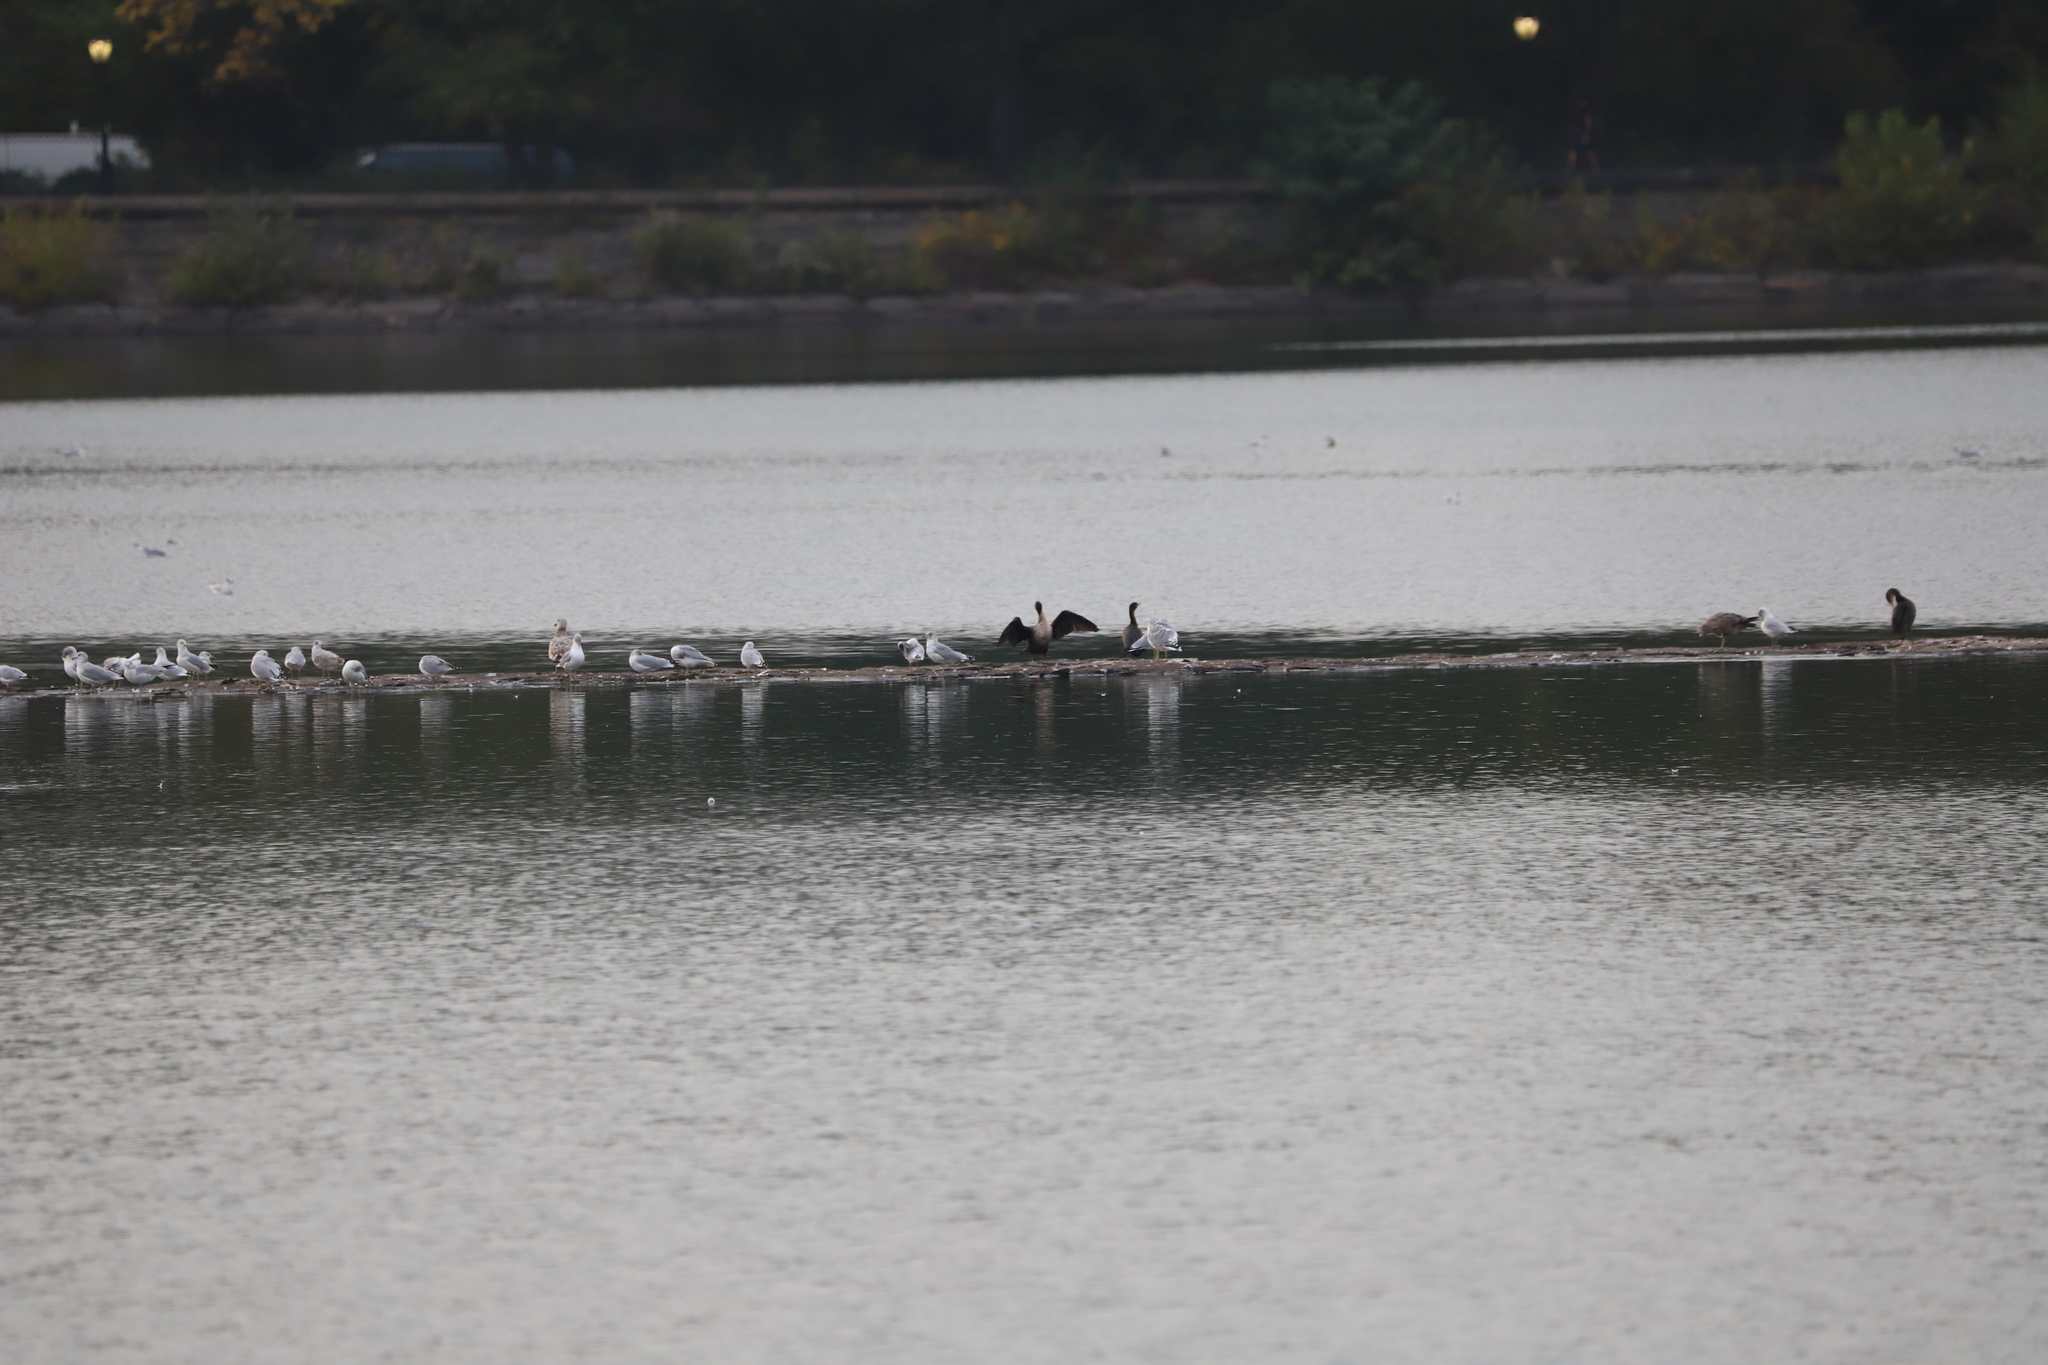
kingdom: Animalia
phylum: Chordata
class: Aves
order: Suliformes
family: Phalacrocoracidae
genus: Phalacrocorax
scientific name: Phalacrocorax auritus
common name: Double-crested cormorant
